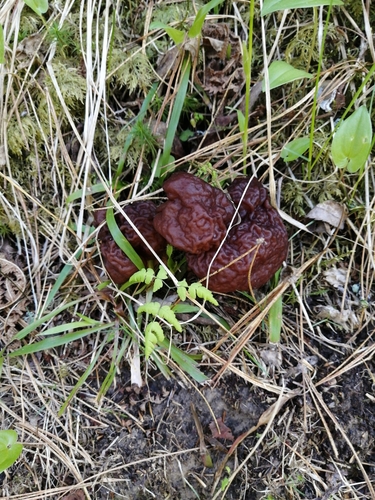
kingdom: Fungi
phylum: Ascomycota
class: Pezizomycetes
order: Pezizales
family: Discinaceae
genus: Gyromitra
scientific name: Gyromitra
